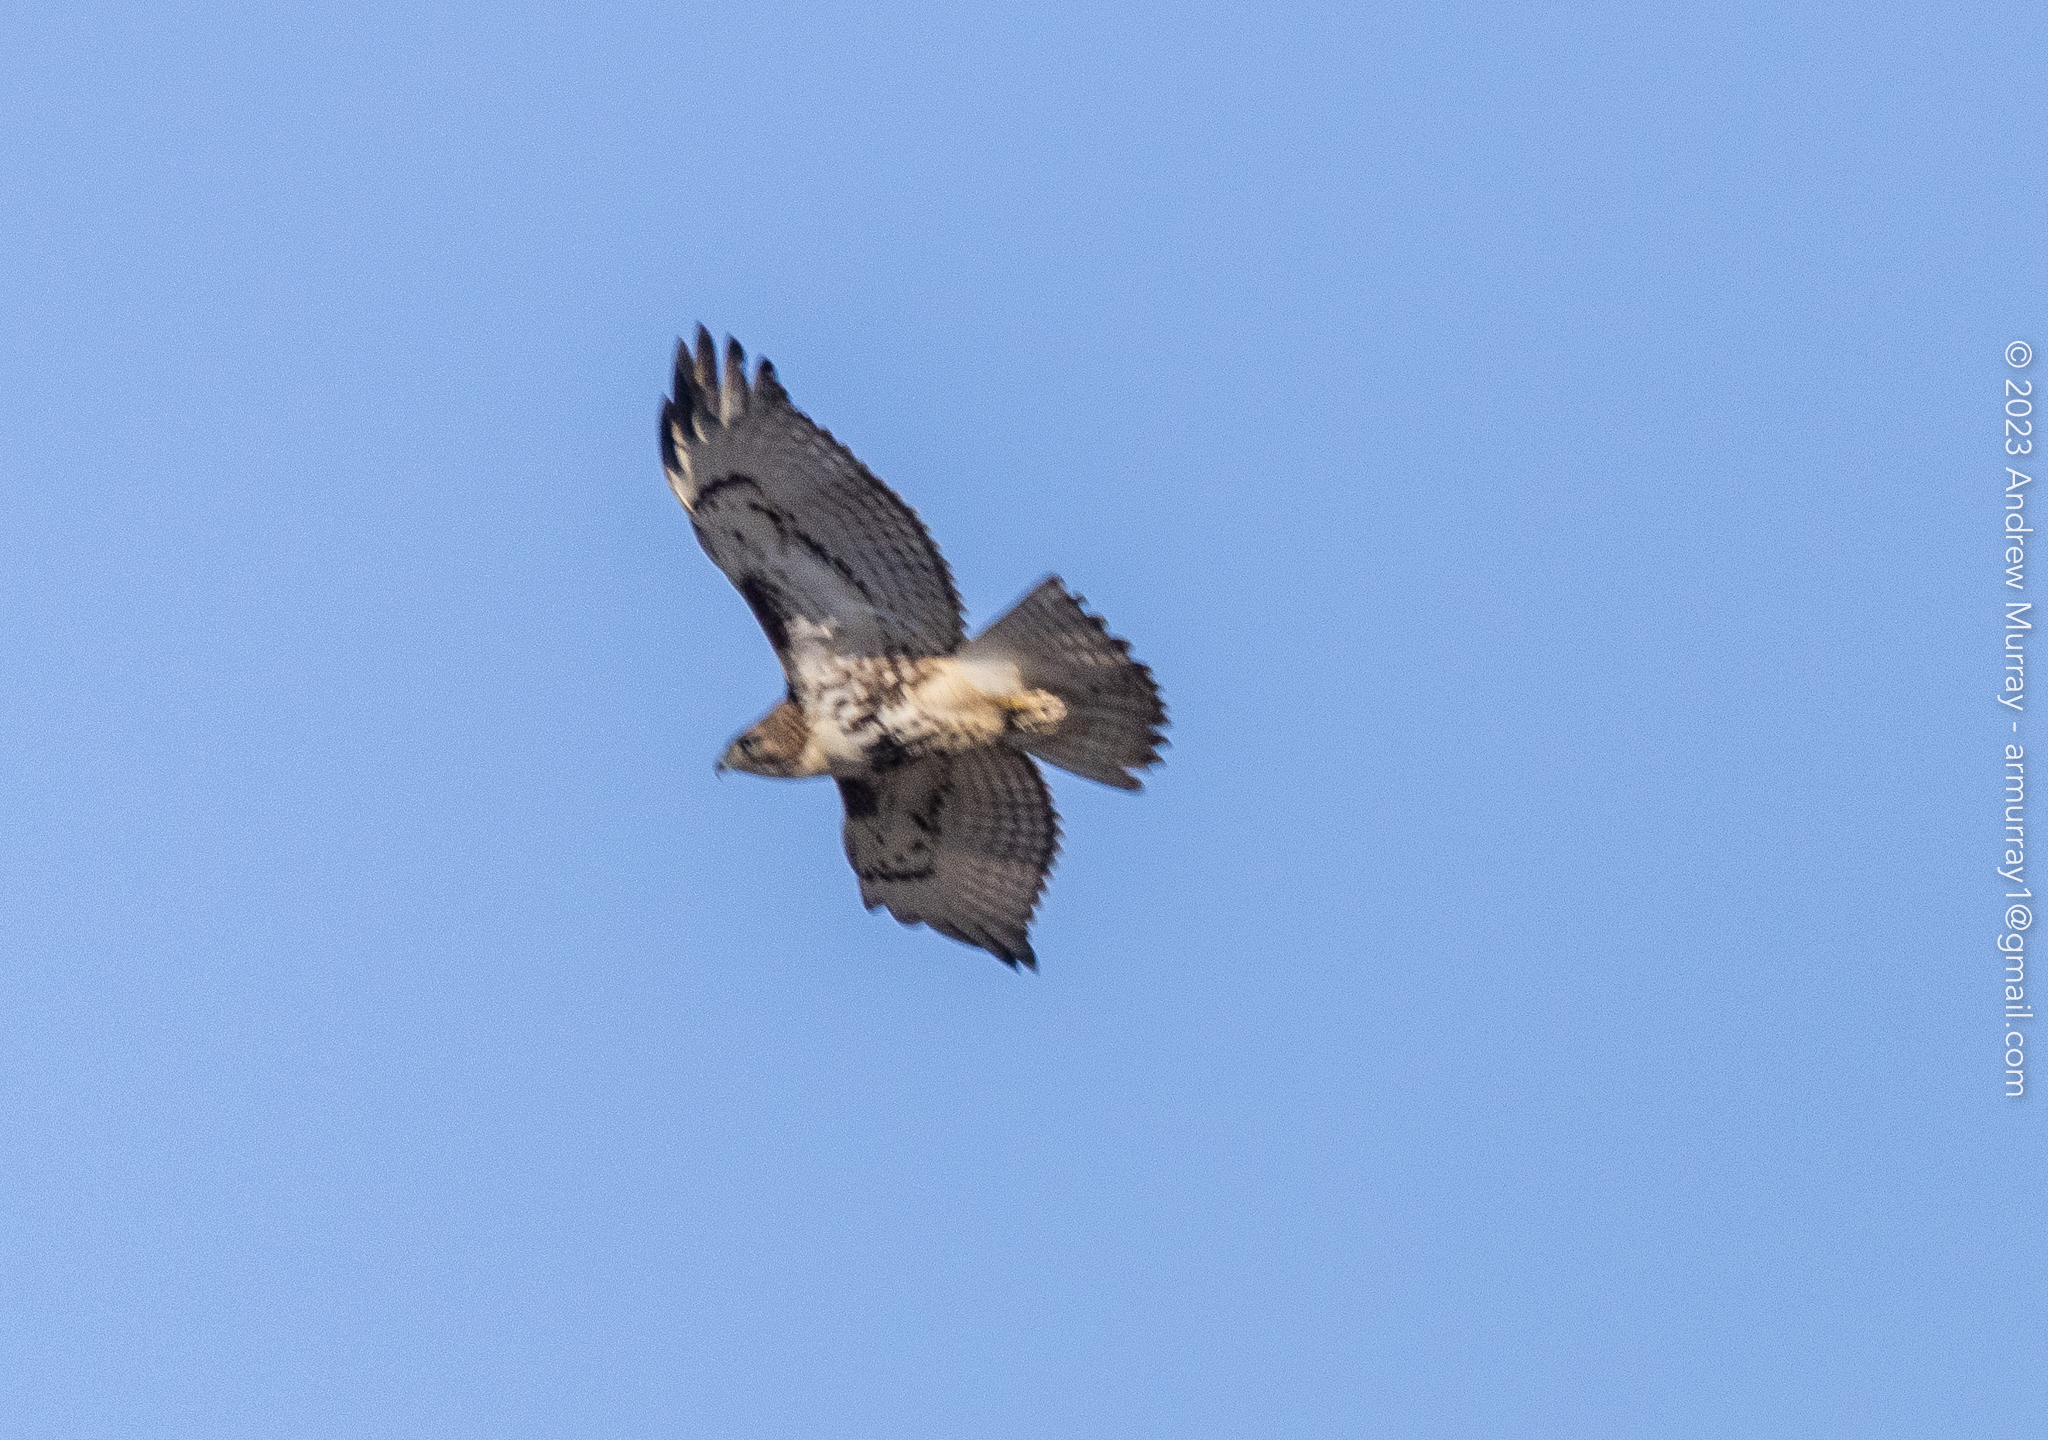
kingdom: Animalia
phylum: Chordata
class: Aves
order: Accipitriformes
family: Accipitridae
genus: Buteo
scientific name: Buteo jamaicensis
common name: Red-tailed hawk
